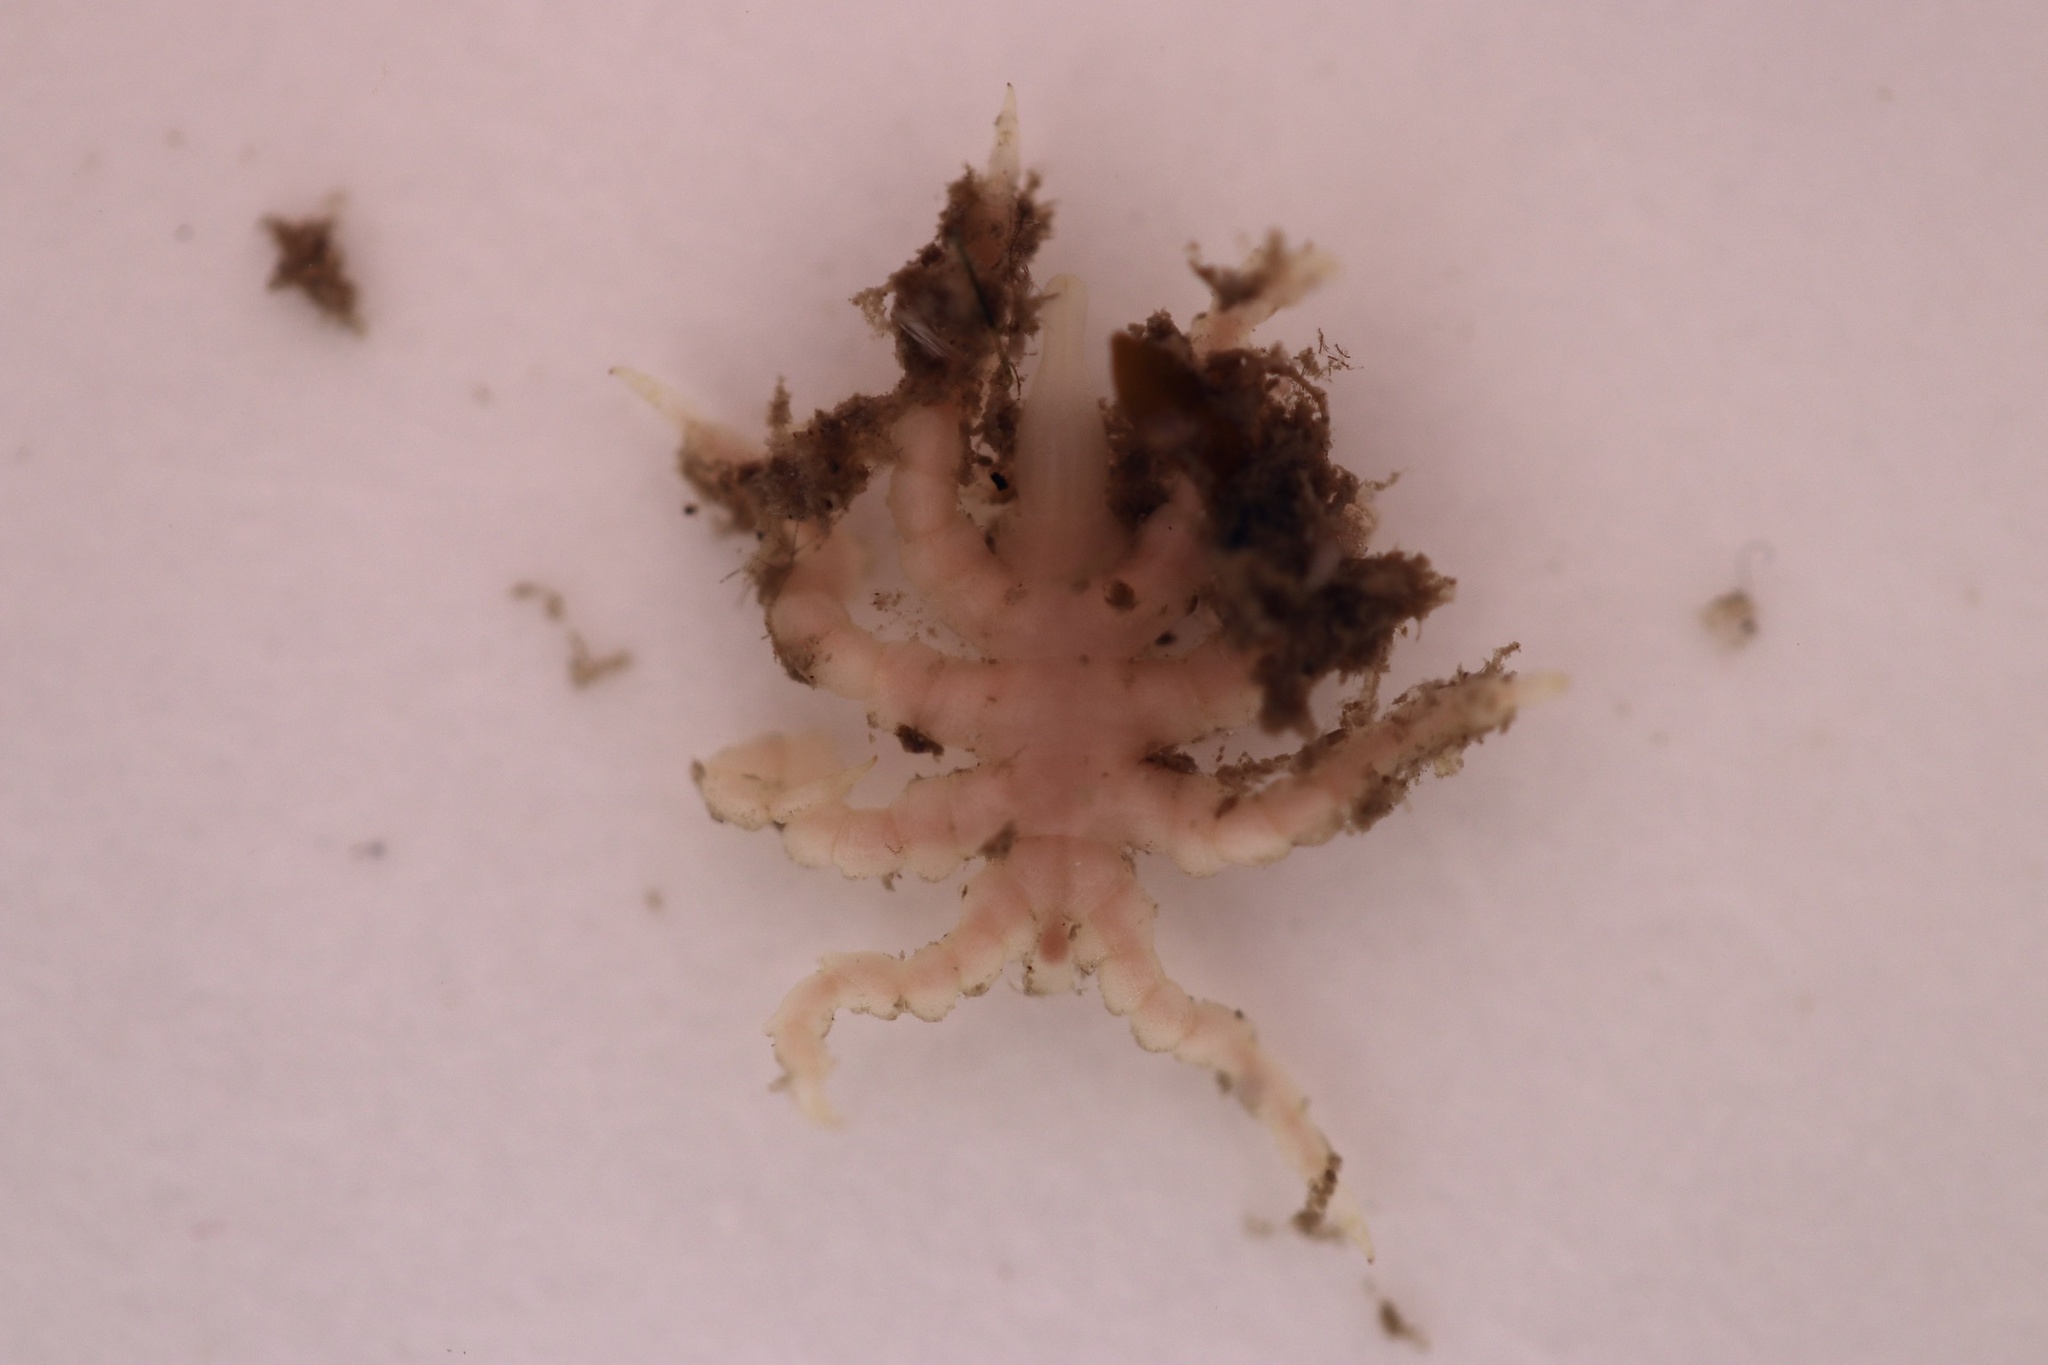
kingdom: Animalia
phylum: Arthropoda
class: Pycnogonida
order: Pantopoda
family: Pycnogonidae
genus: Pycnogonum
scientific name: Pycnogonum litorale
